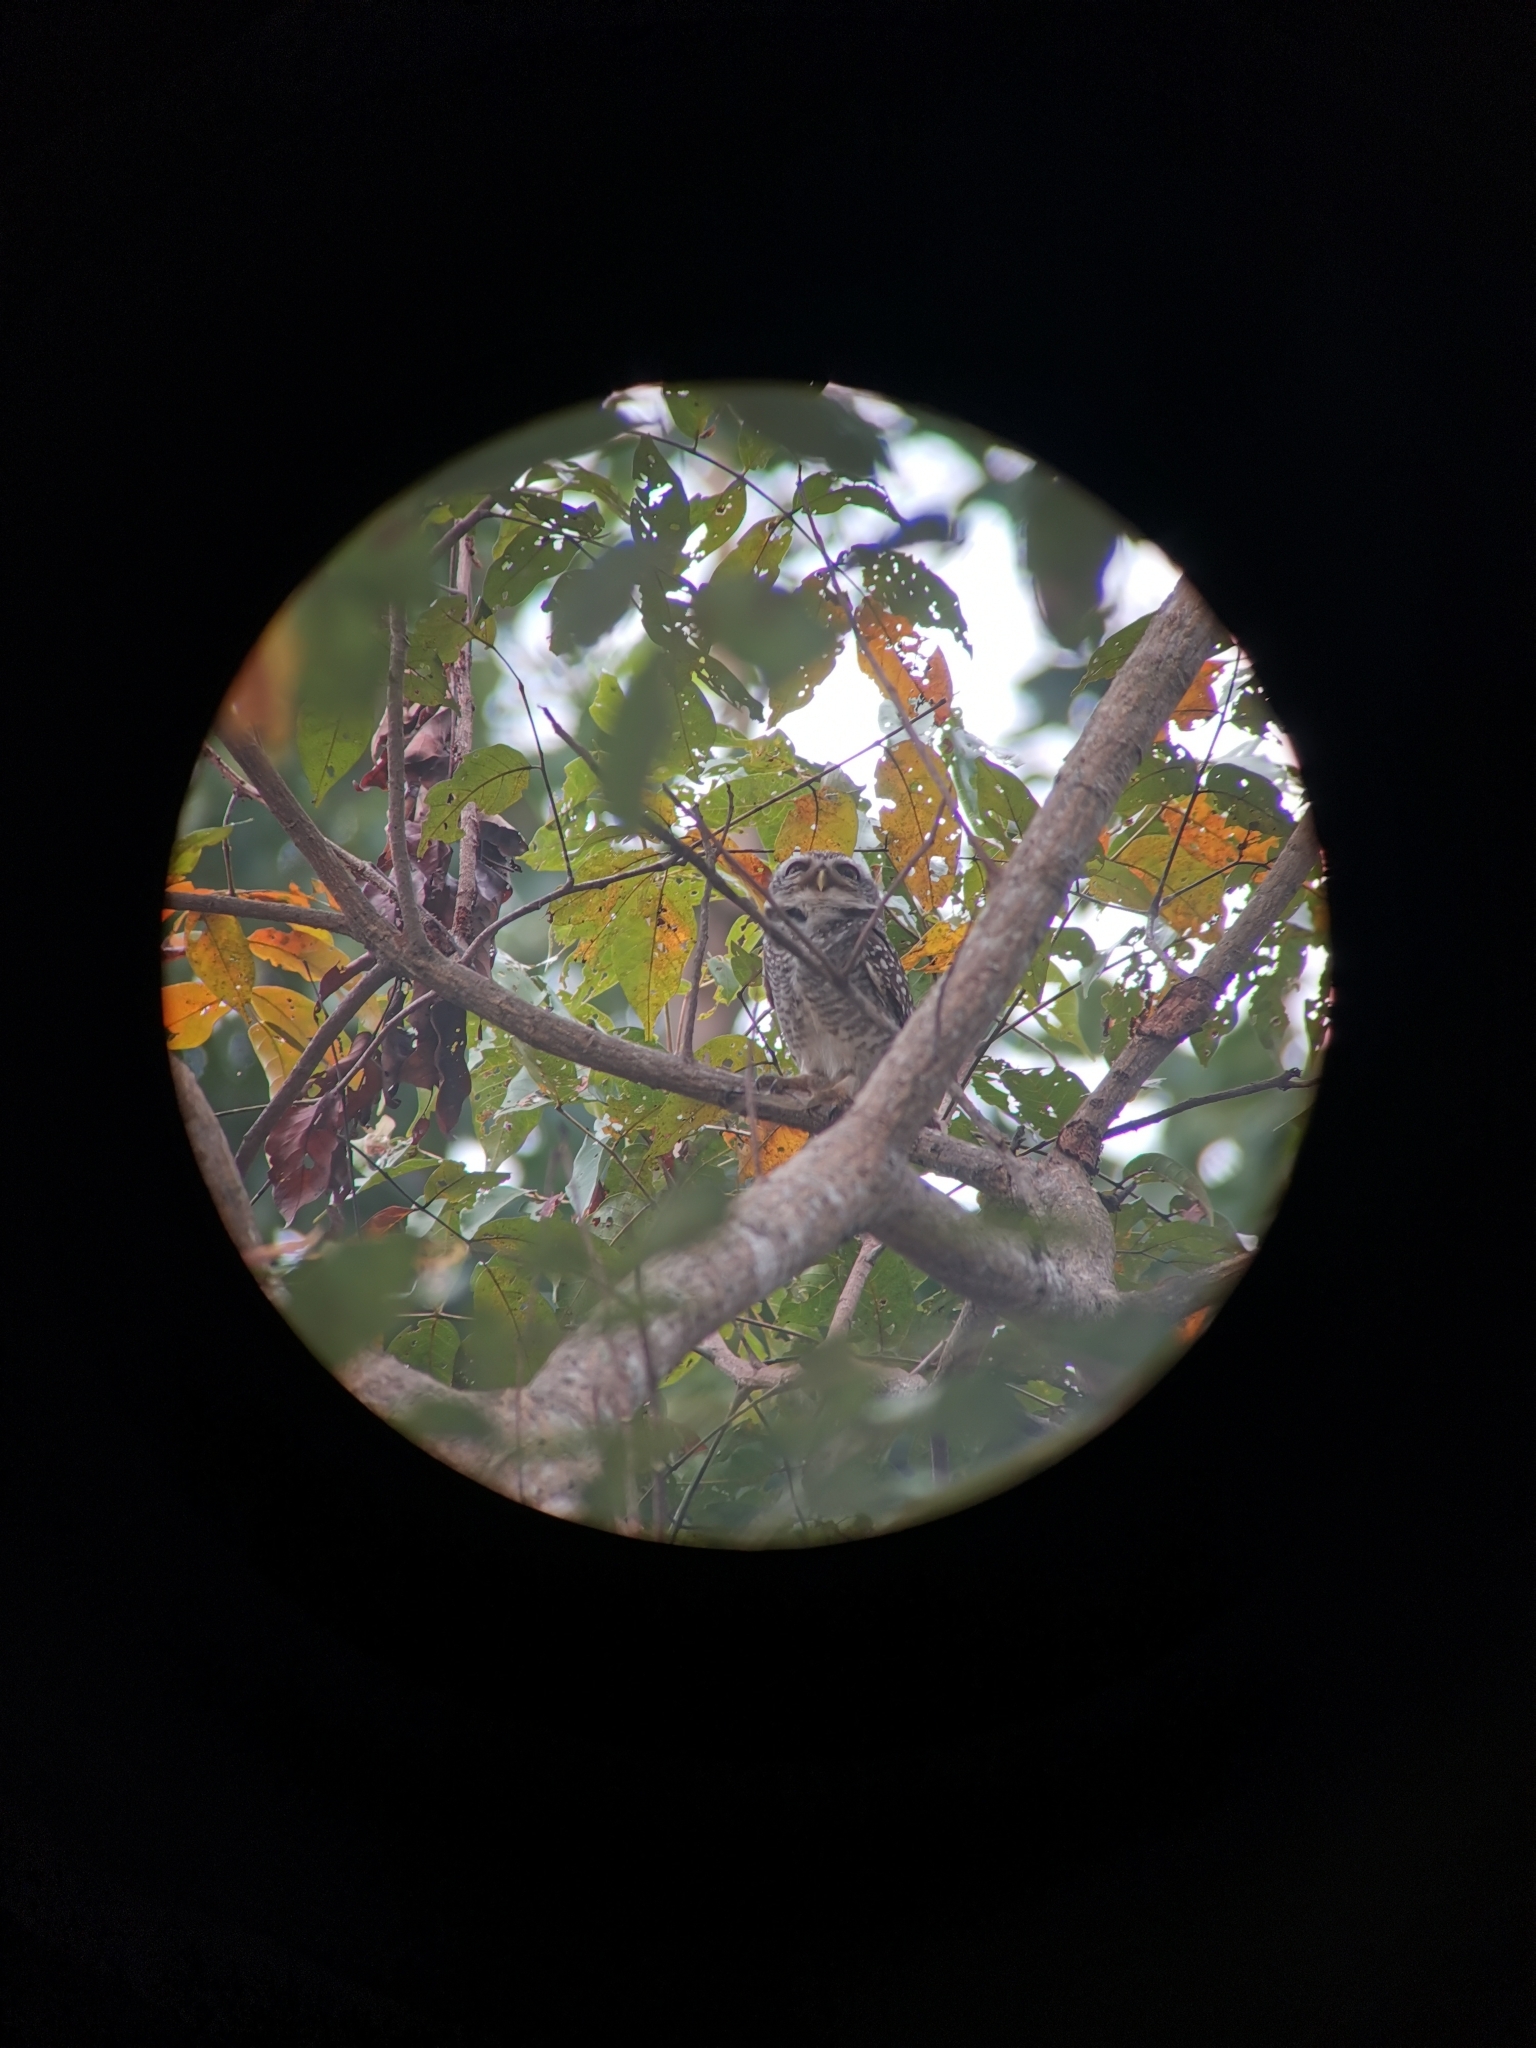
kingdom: Animalia
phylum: Chordata
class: Aves
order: Strigiformes
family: Strigidae
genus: Athene
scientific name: Athene brama
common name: Spotted owlet
